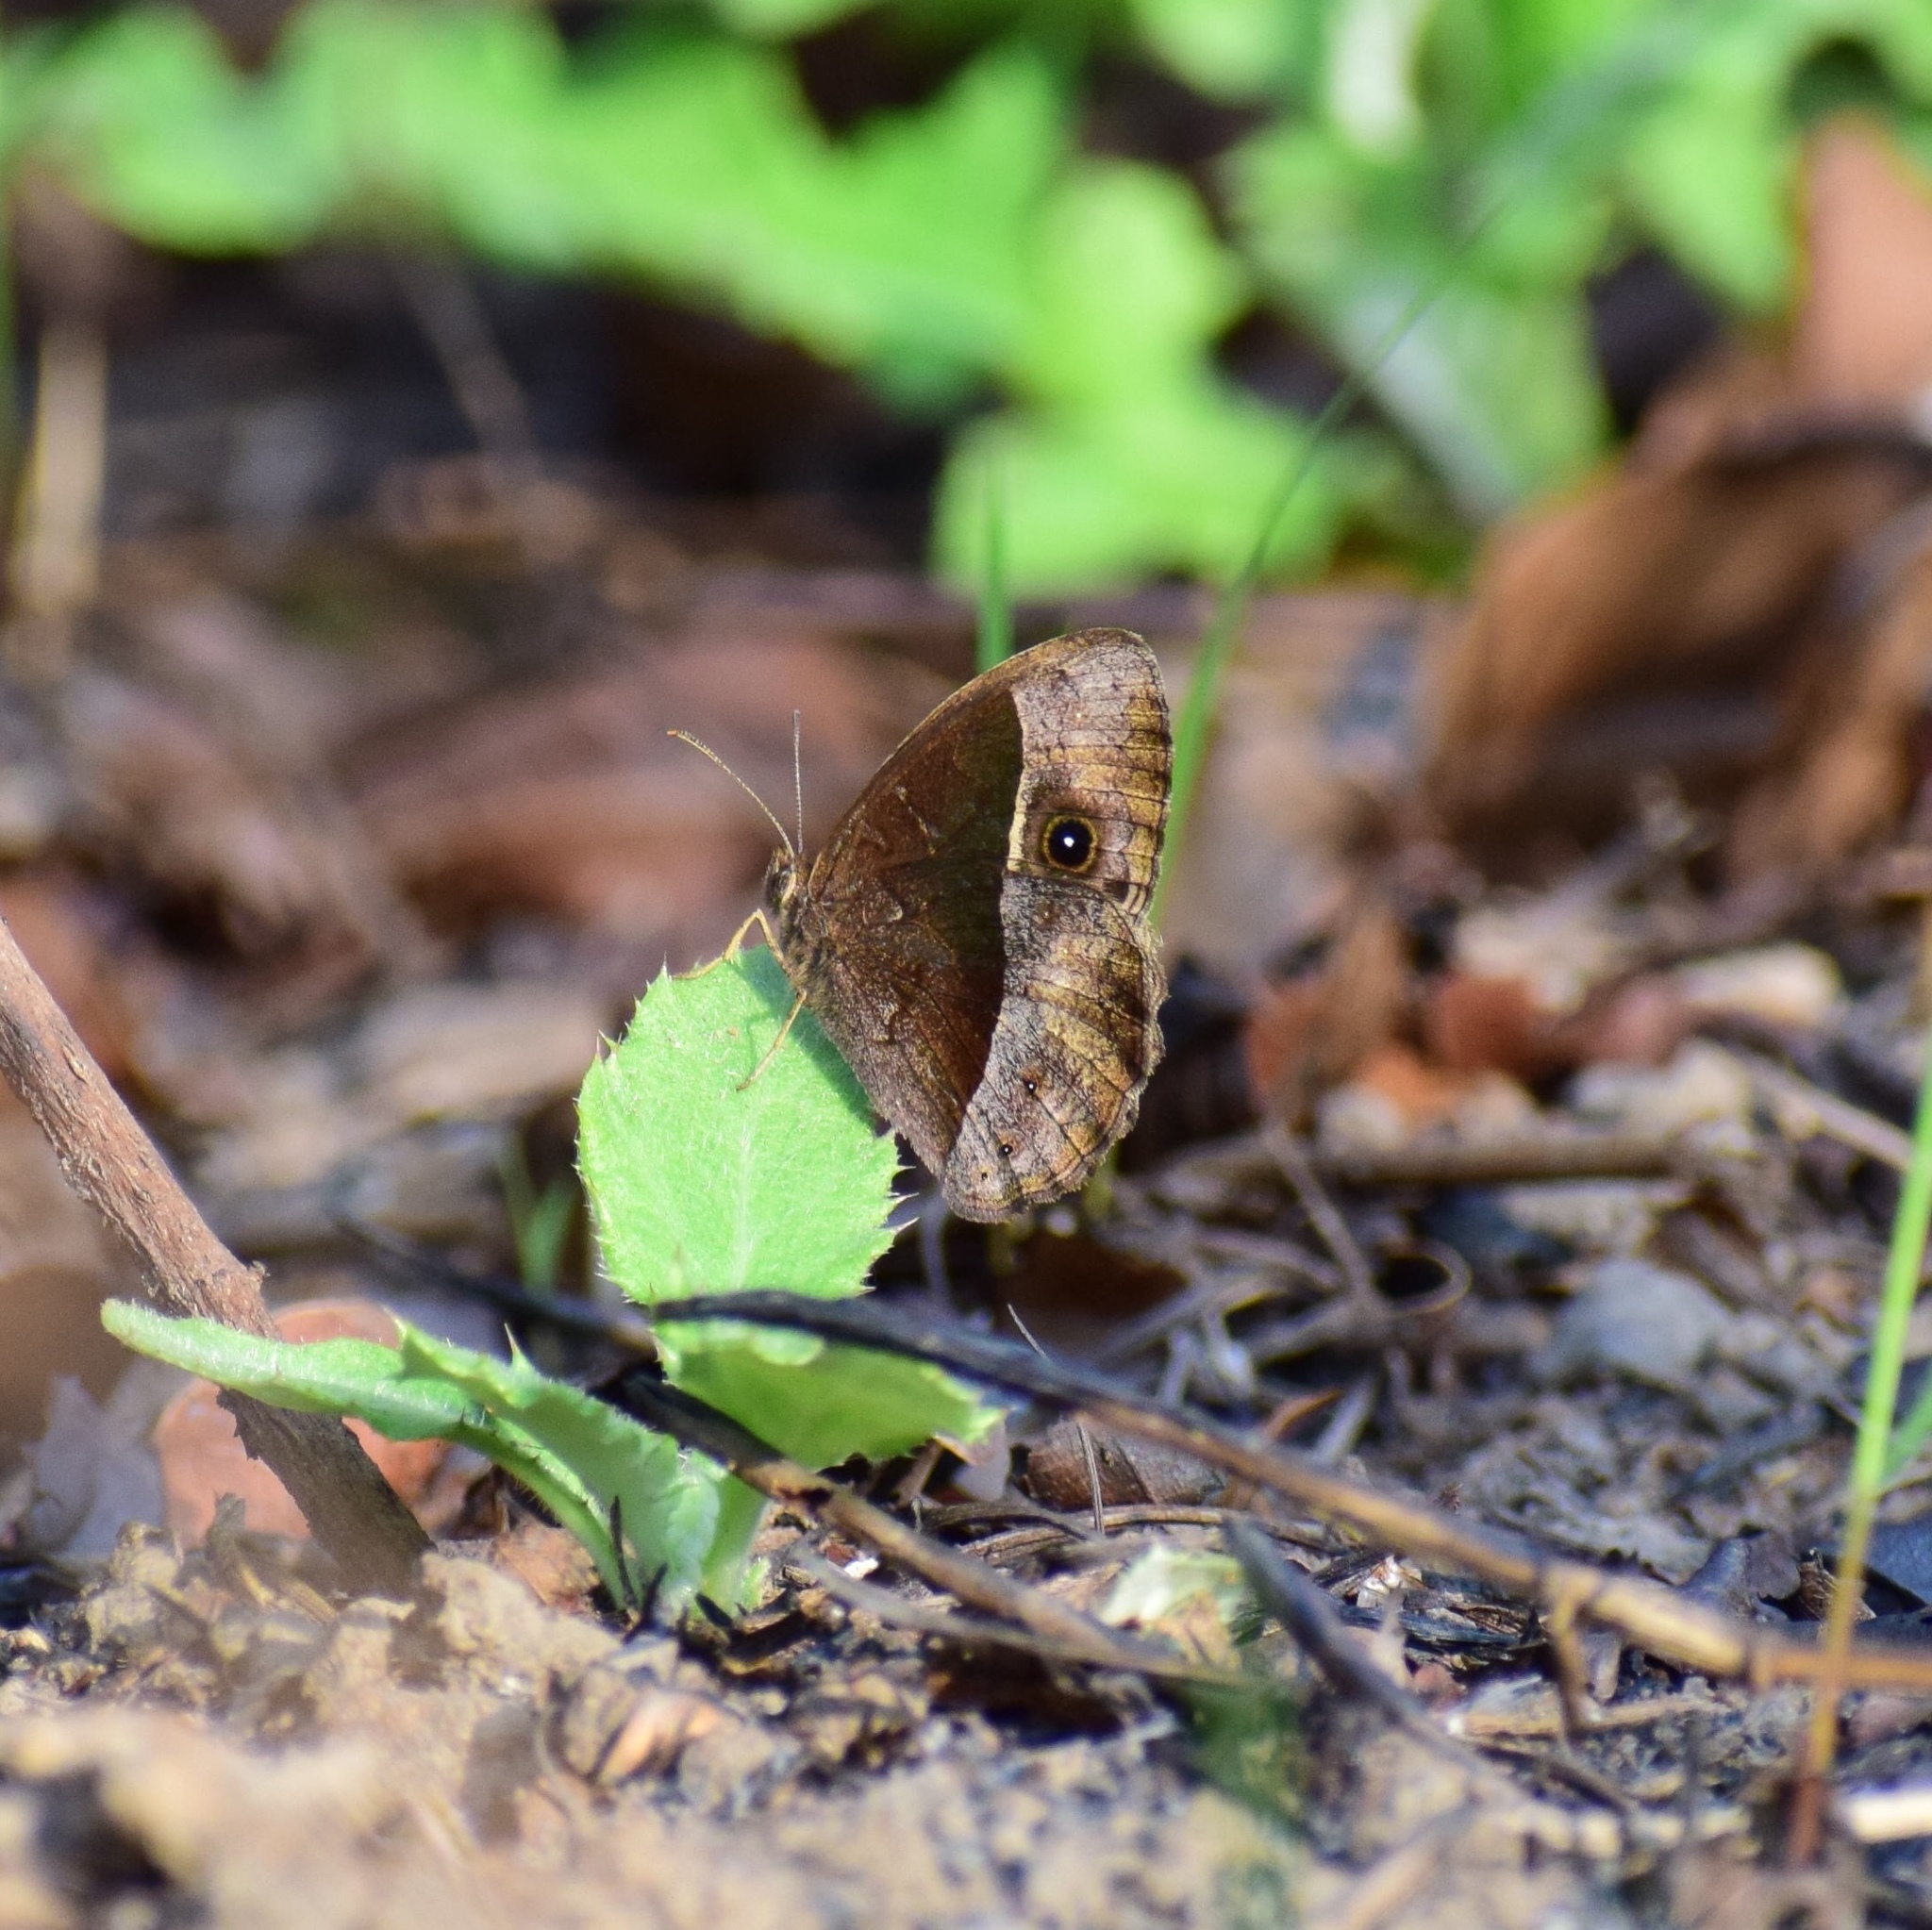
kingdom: Animalia
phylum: Arthropoda
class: Insecta
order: Lepidoptera
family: Nymphalidae
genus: Mycalesis
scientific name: Mycalesis rhacotis
